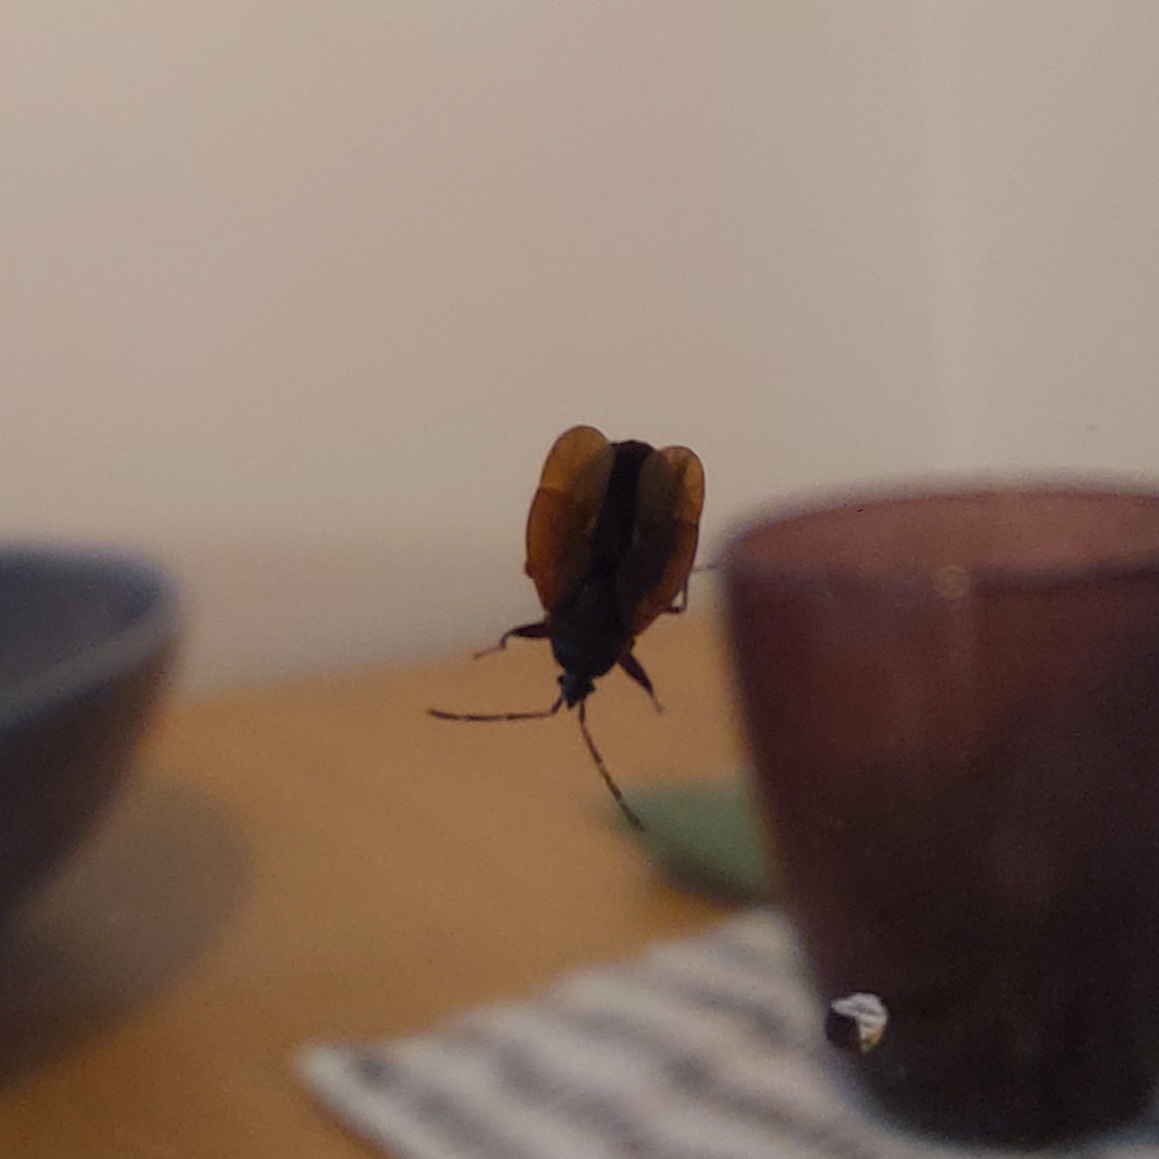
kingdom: Animalia
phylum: Arthropoda
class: Insecta
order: Hemiptera
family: Rhyparochromidae
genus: Gastrodes
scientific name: Gastrodes grossipes
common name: Pine cone bug
